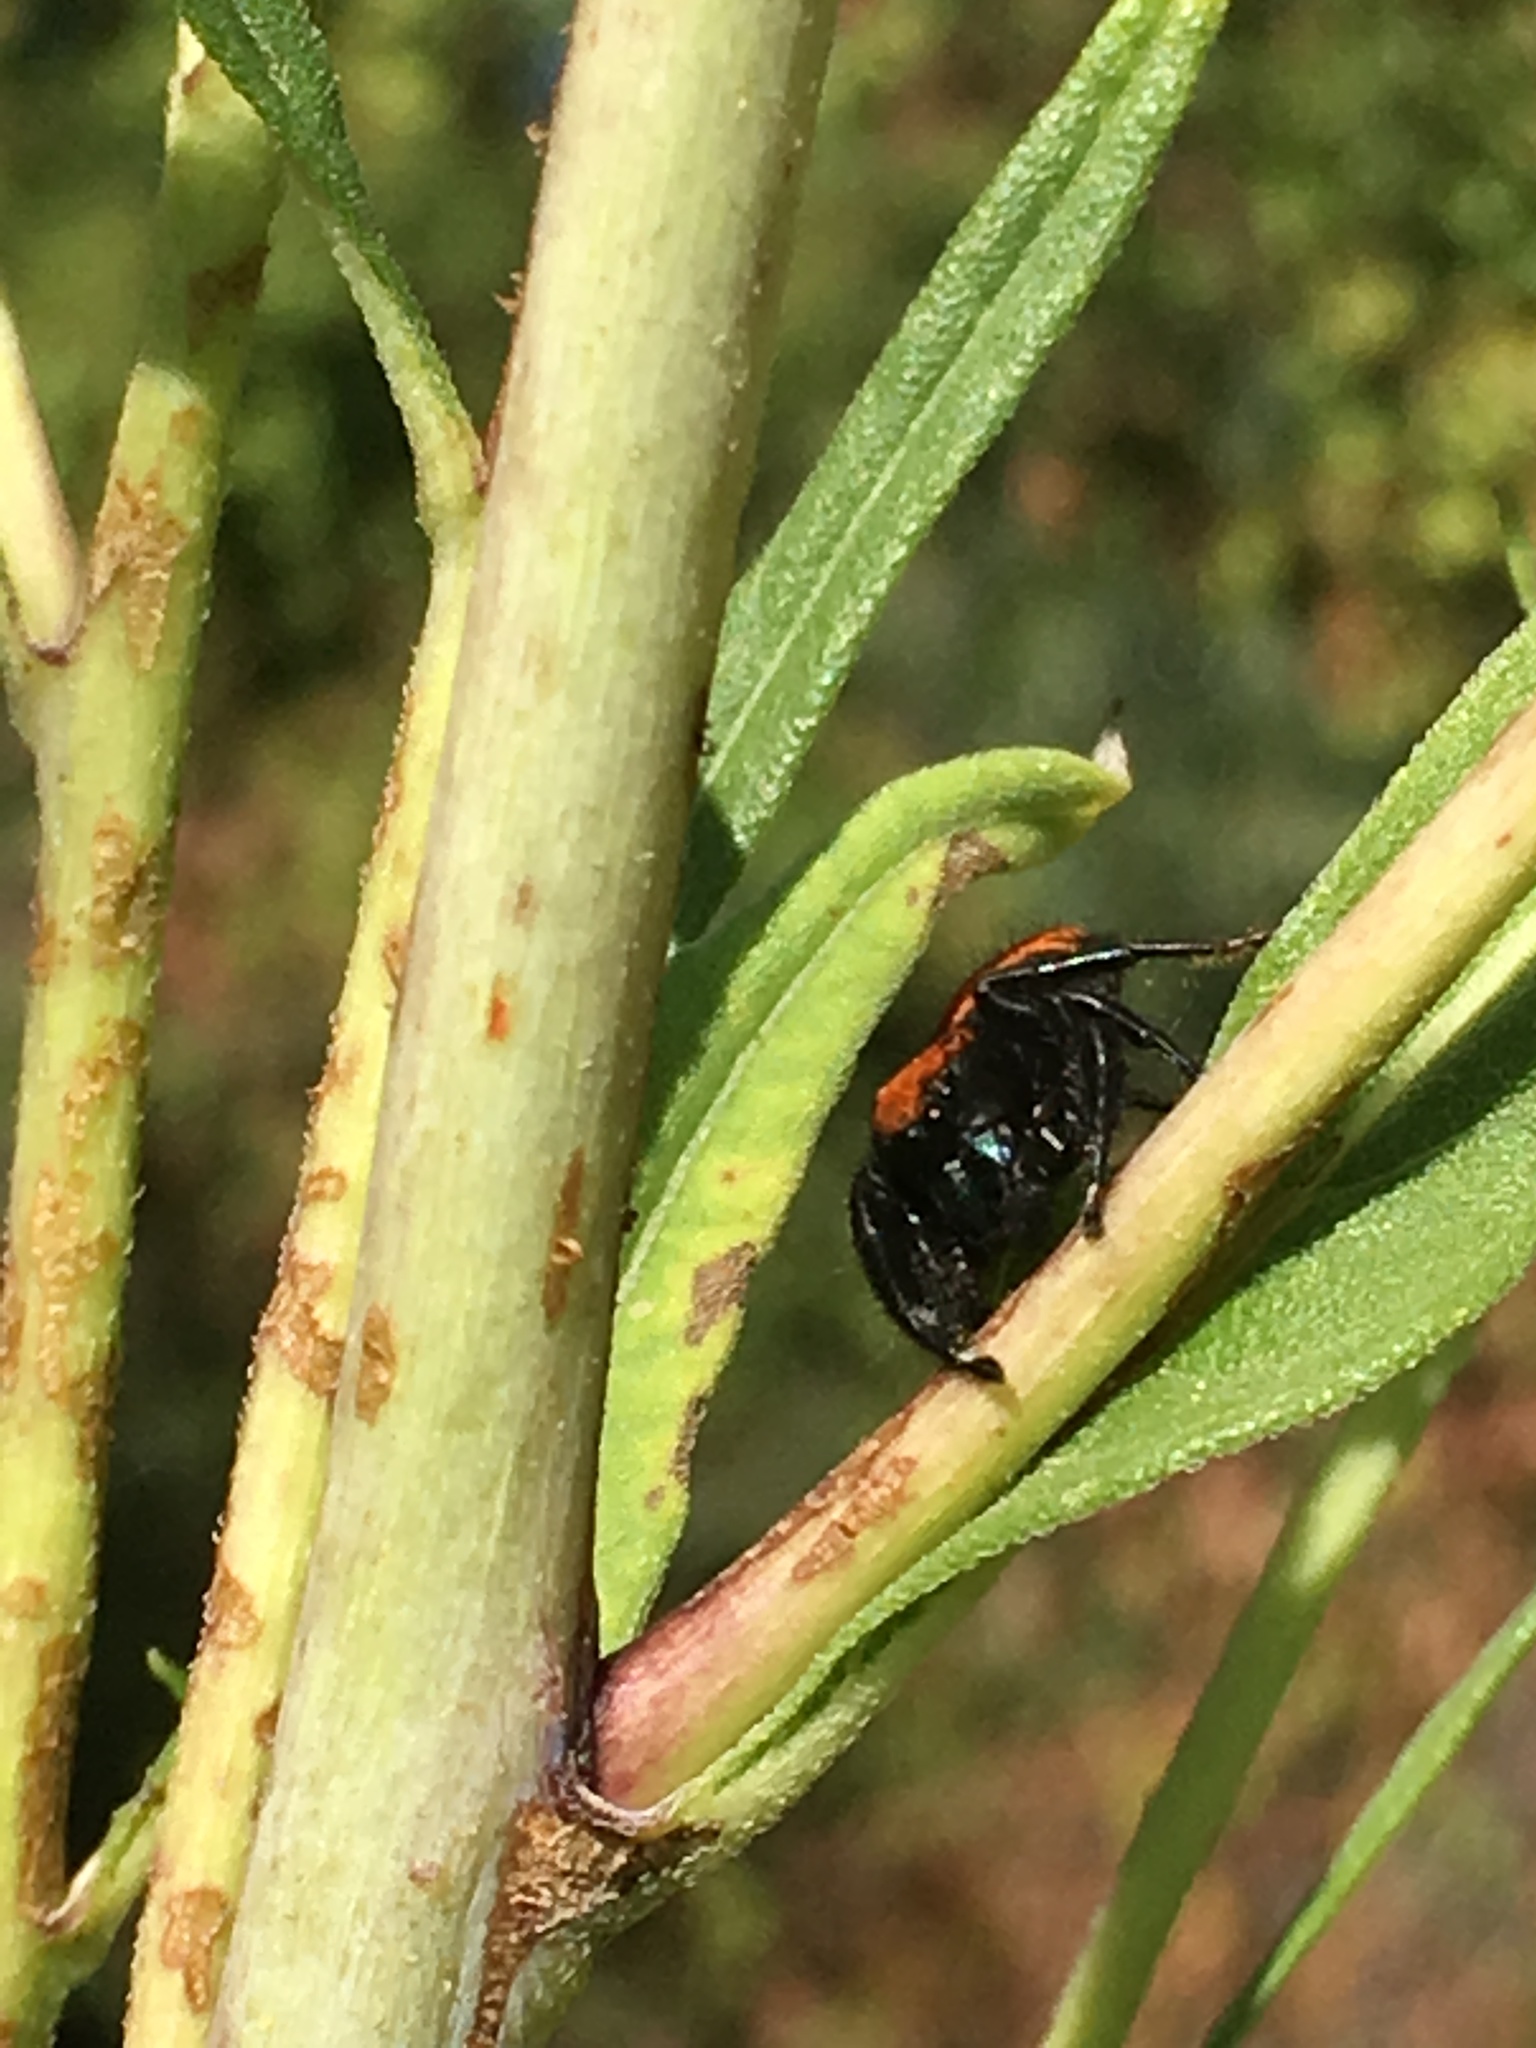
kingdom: Animalia
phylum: Arthropoda
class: Arachnida
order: Araneae
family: Salticidae
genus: Phidippus
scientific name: Phidippus apacheanus
